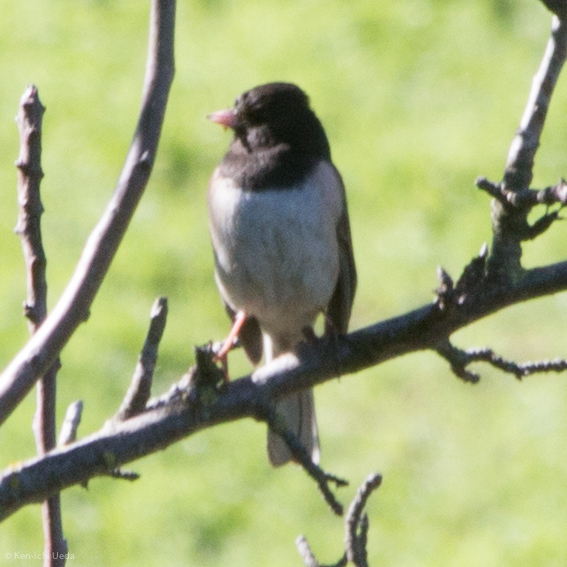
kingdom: Animalia
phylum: Chordata
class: Aves
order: Passeriformes
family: Passerellidae
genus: Junco
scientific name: Junco hyemalis
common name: Dark-eyed junco
